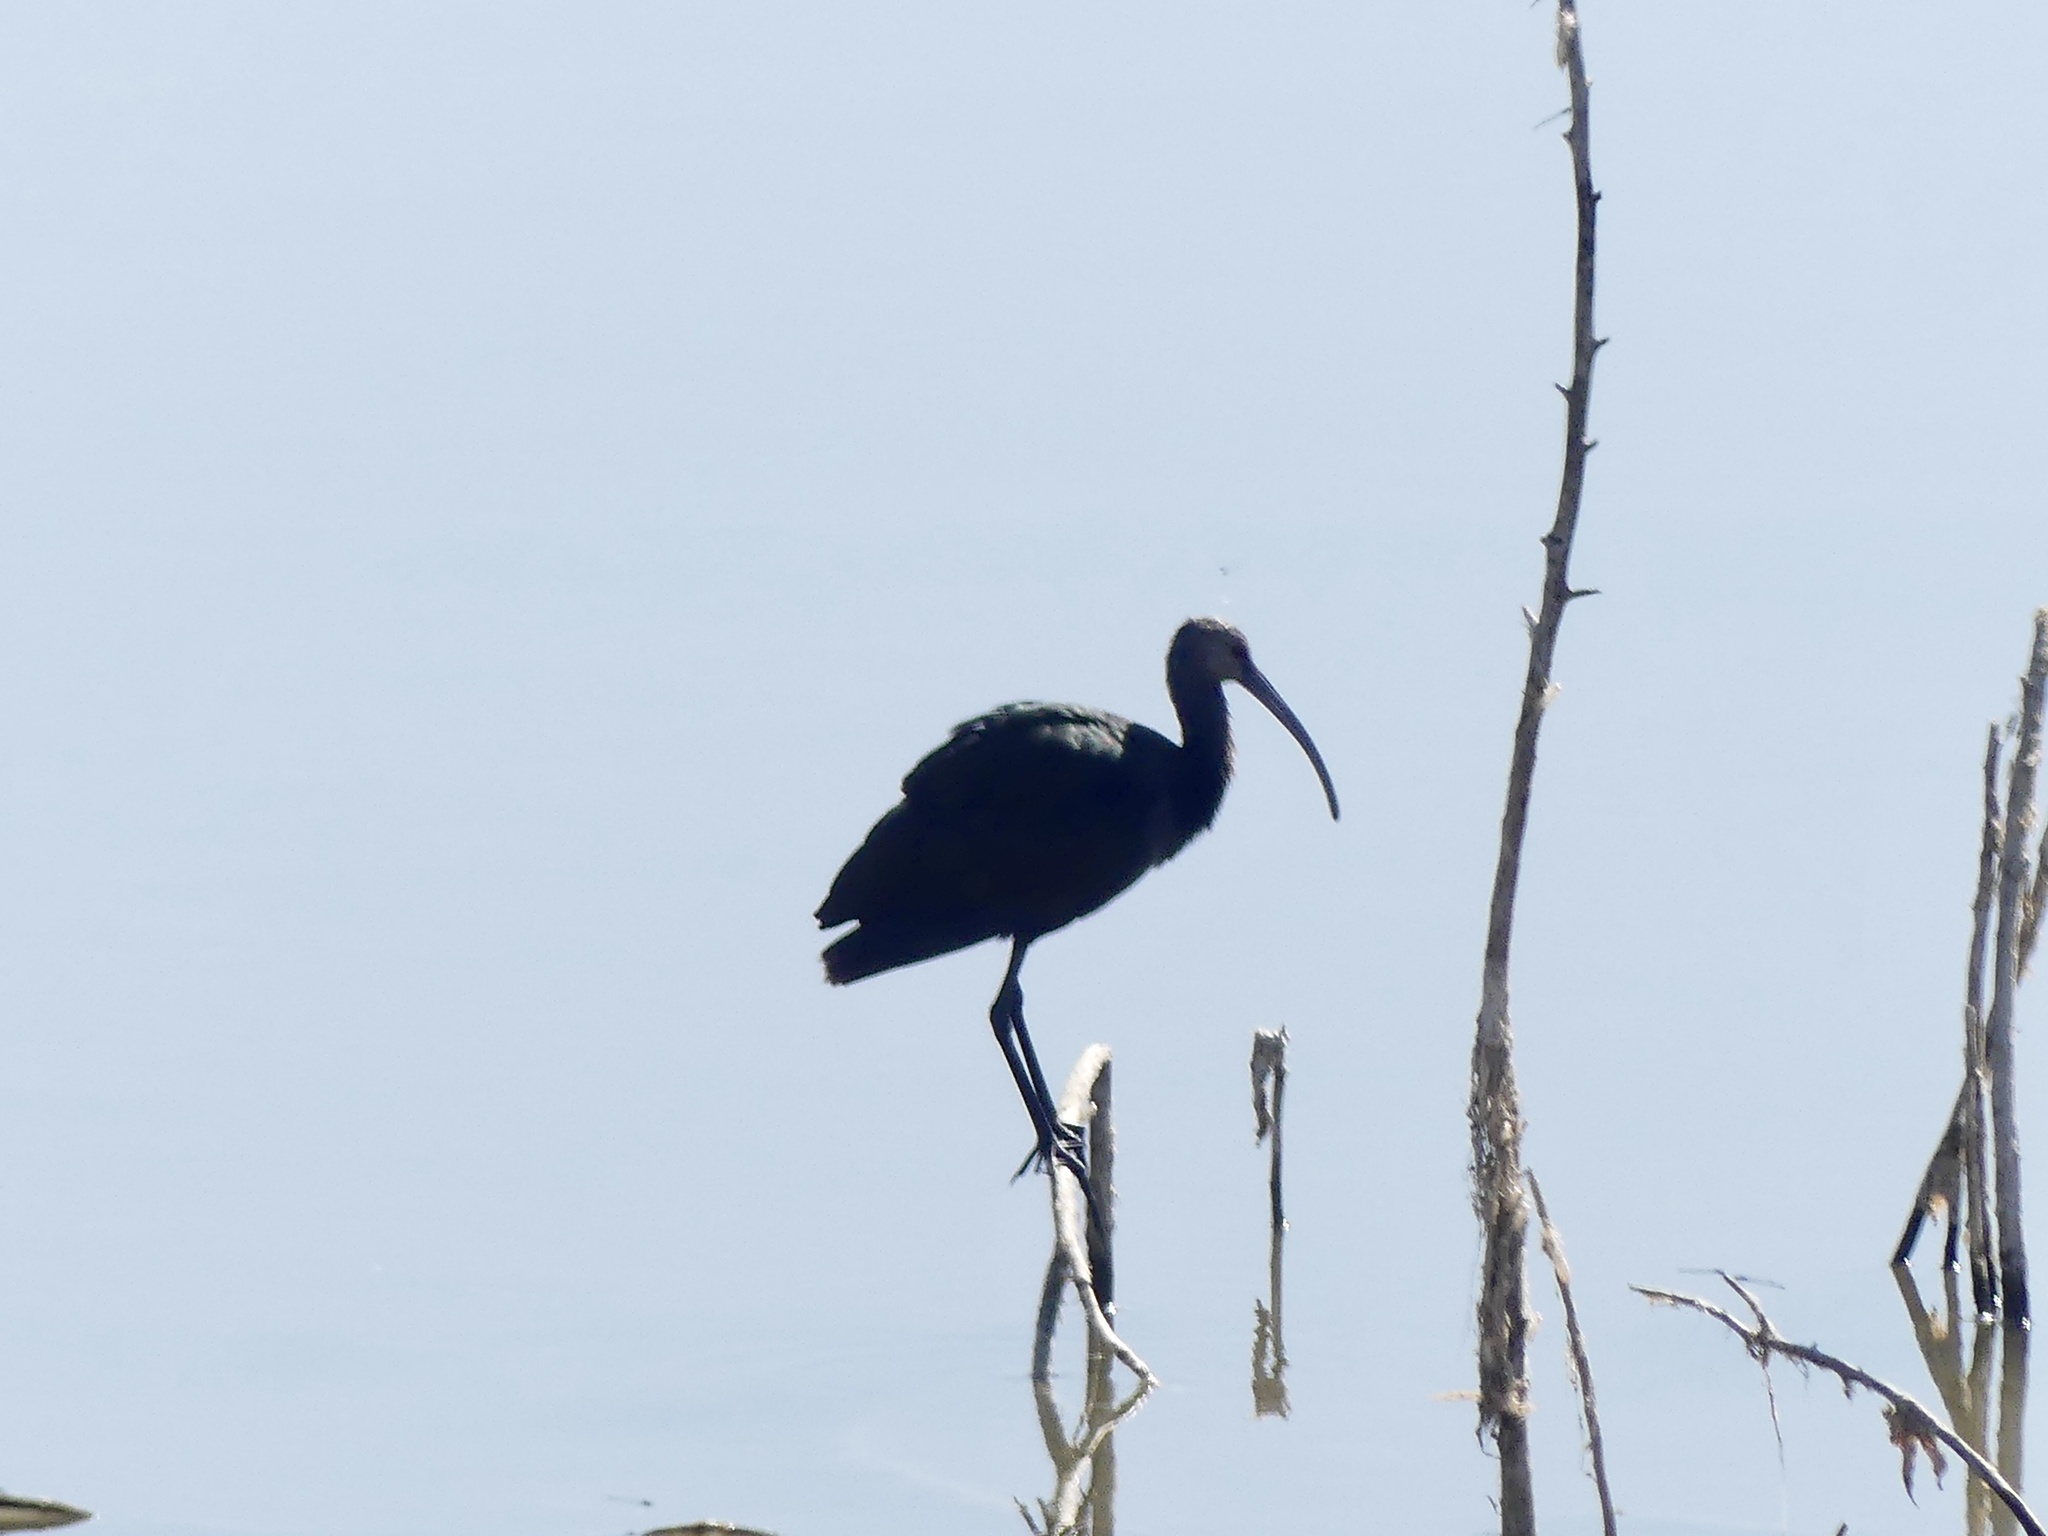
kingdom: Animalia
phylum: Chordata
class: Aves
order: Pelecaniformes
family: Threskiornithidae
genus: Plegadis
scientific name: Plegadis chihi
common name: White-faced ibis
